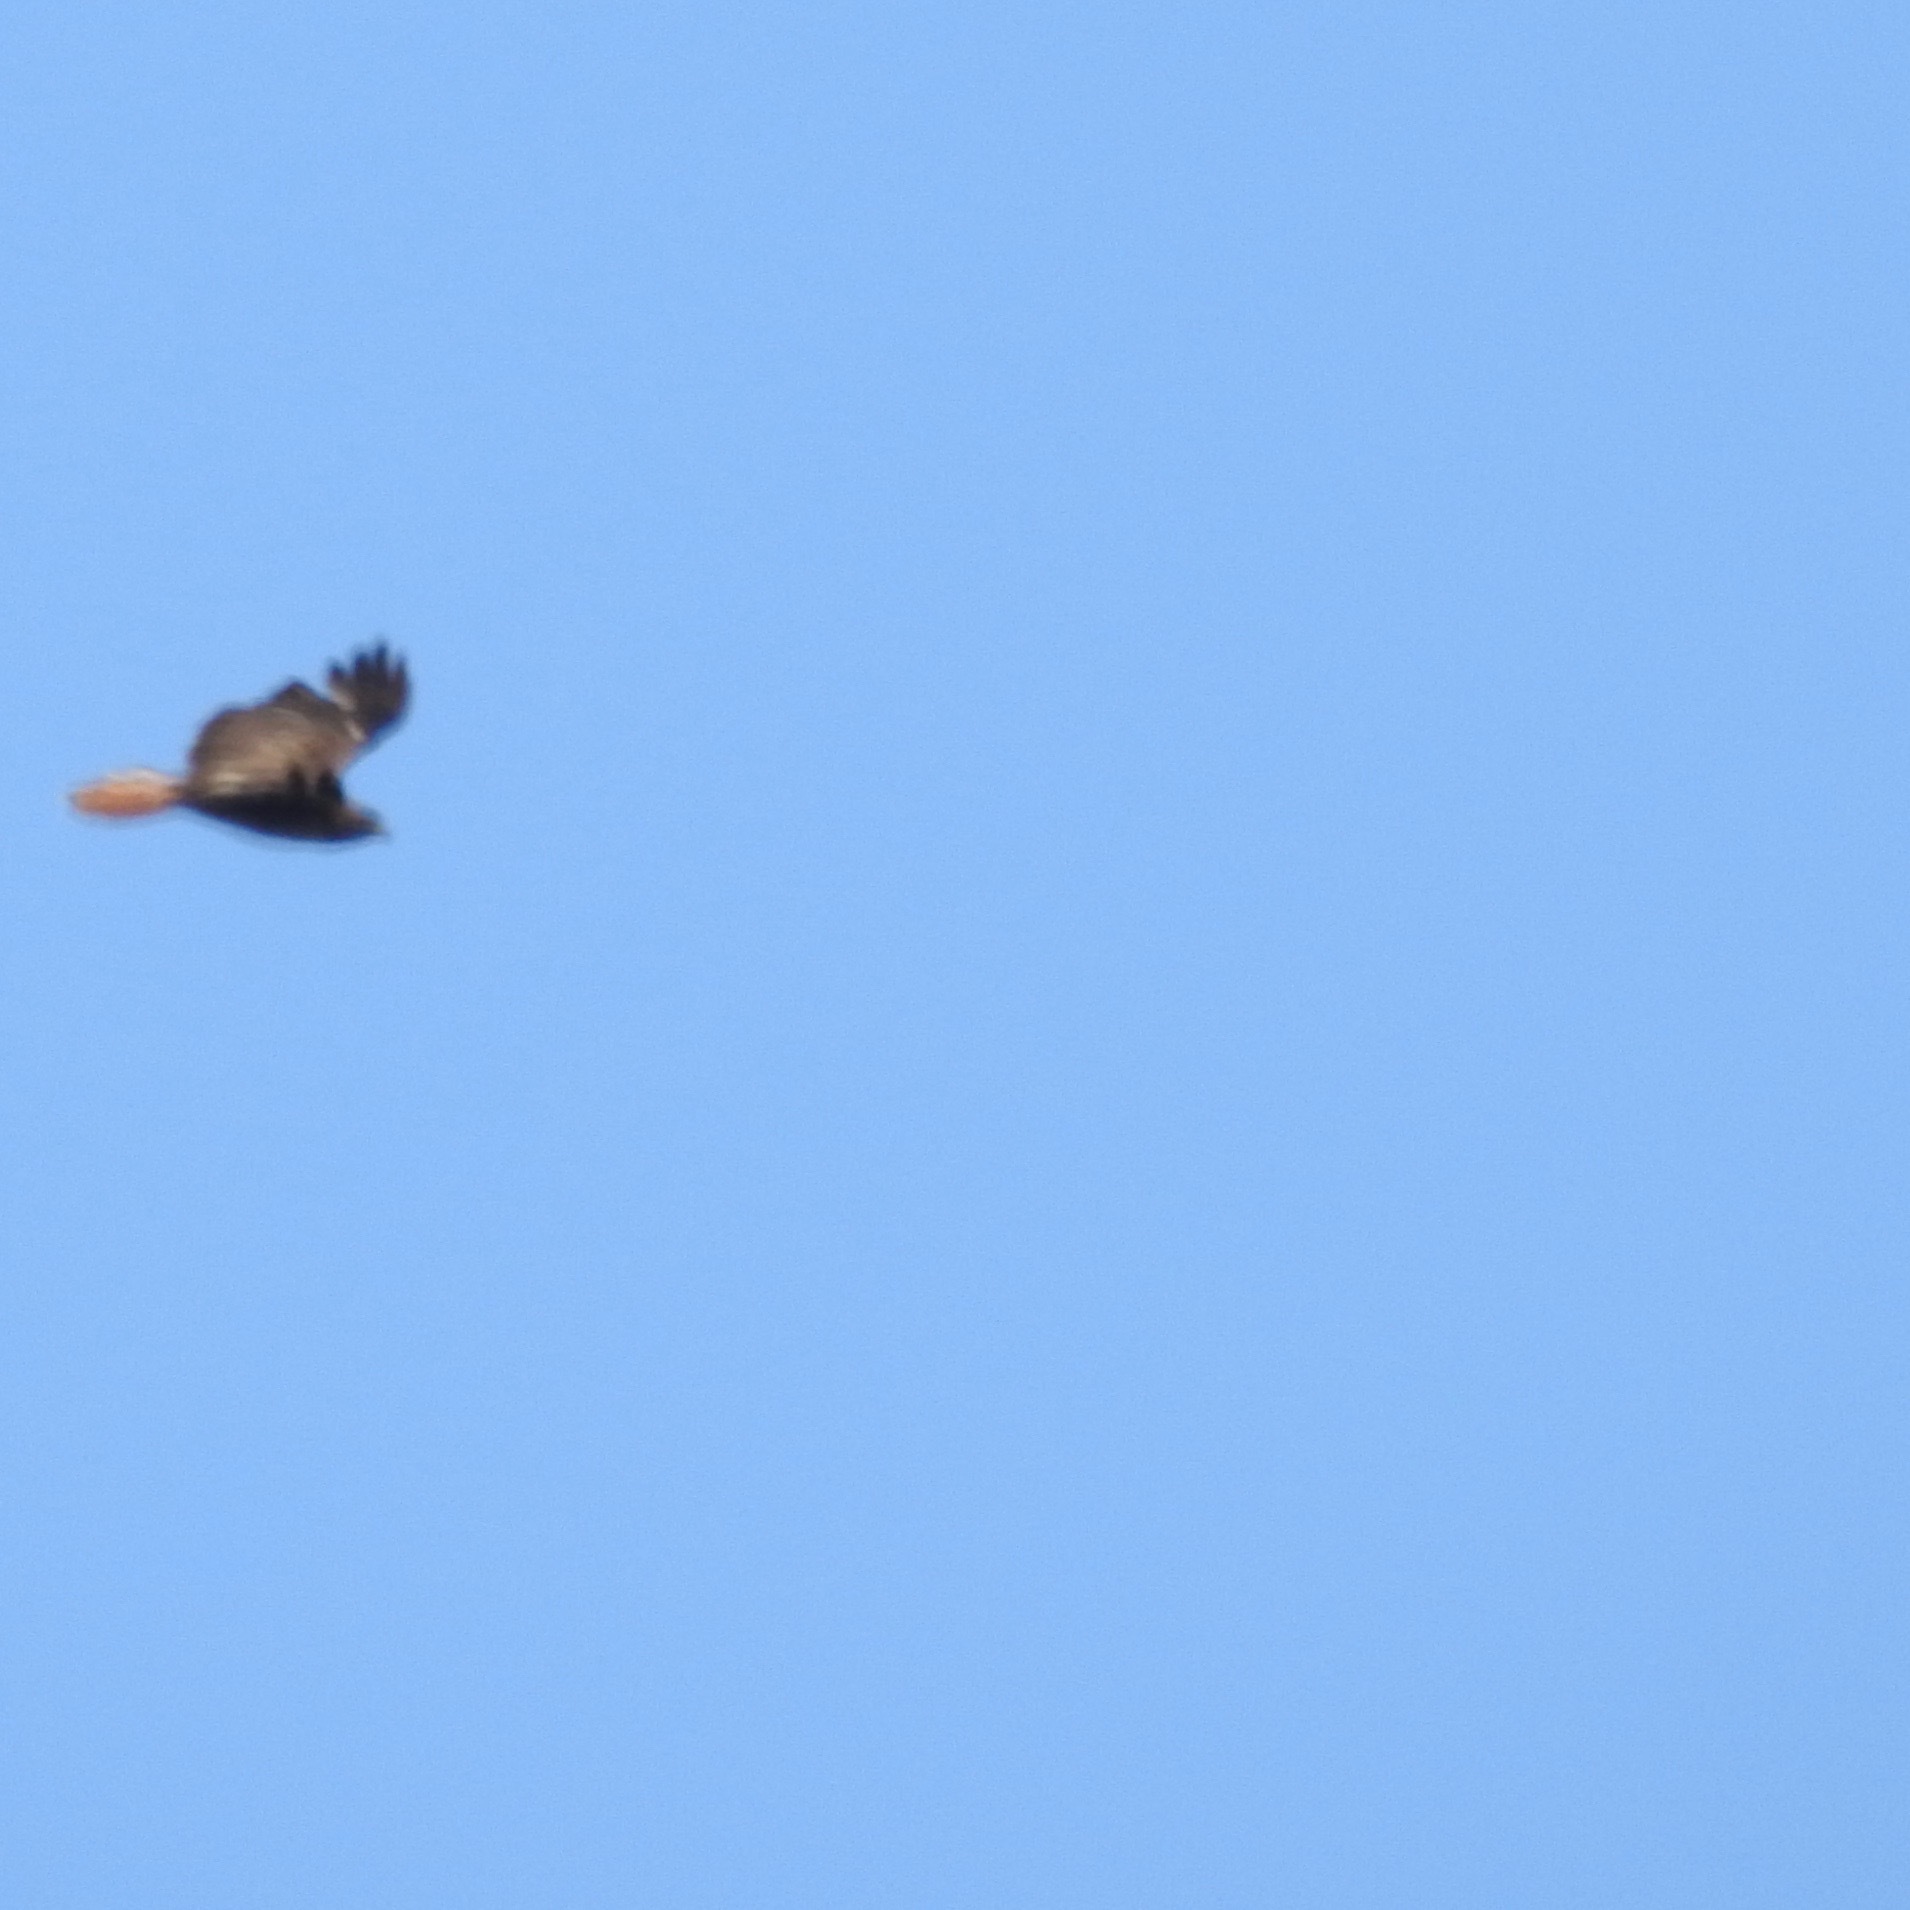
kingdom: Animalia
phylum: Chordata
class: Aves
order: Accipitriformes
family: Accipitridae
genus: Buteo
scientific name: Buteo jamaicensis
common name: Red-tailed hawk
